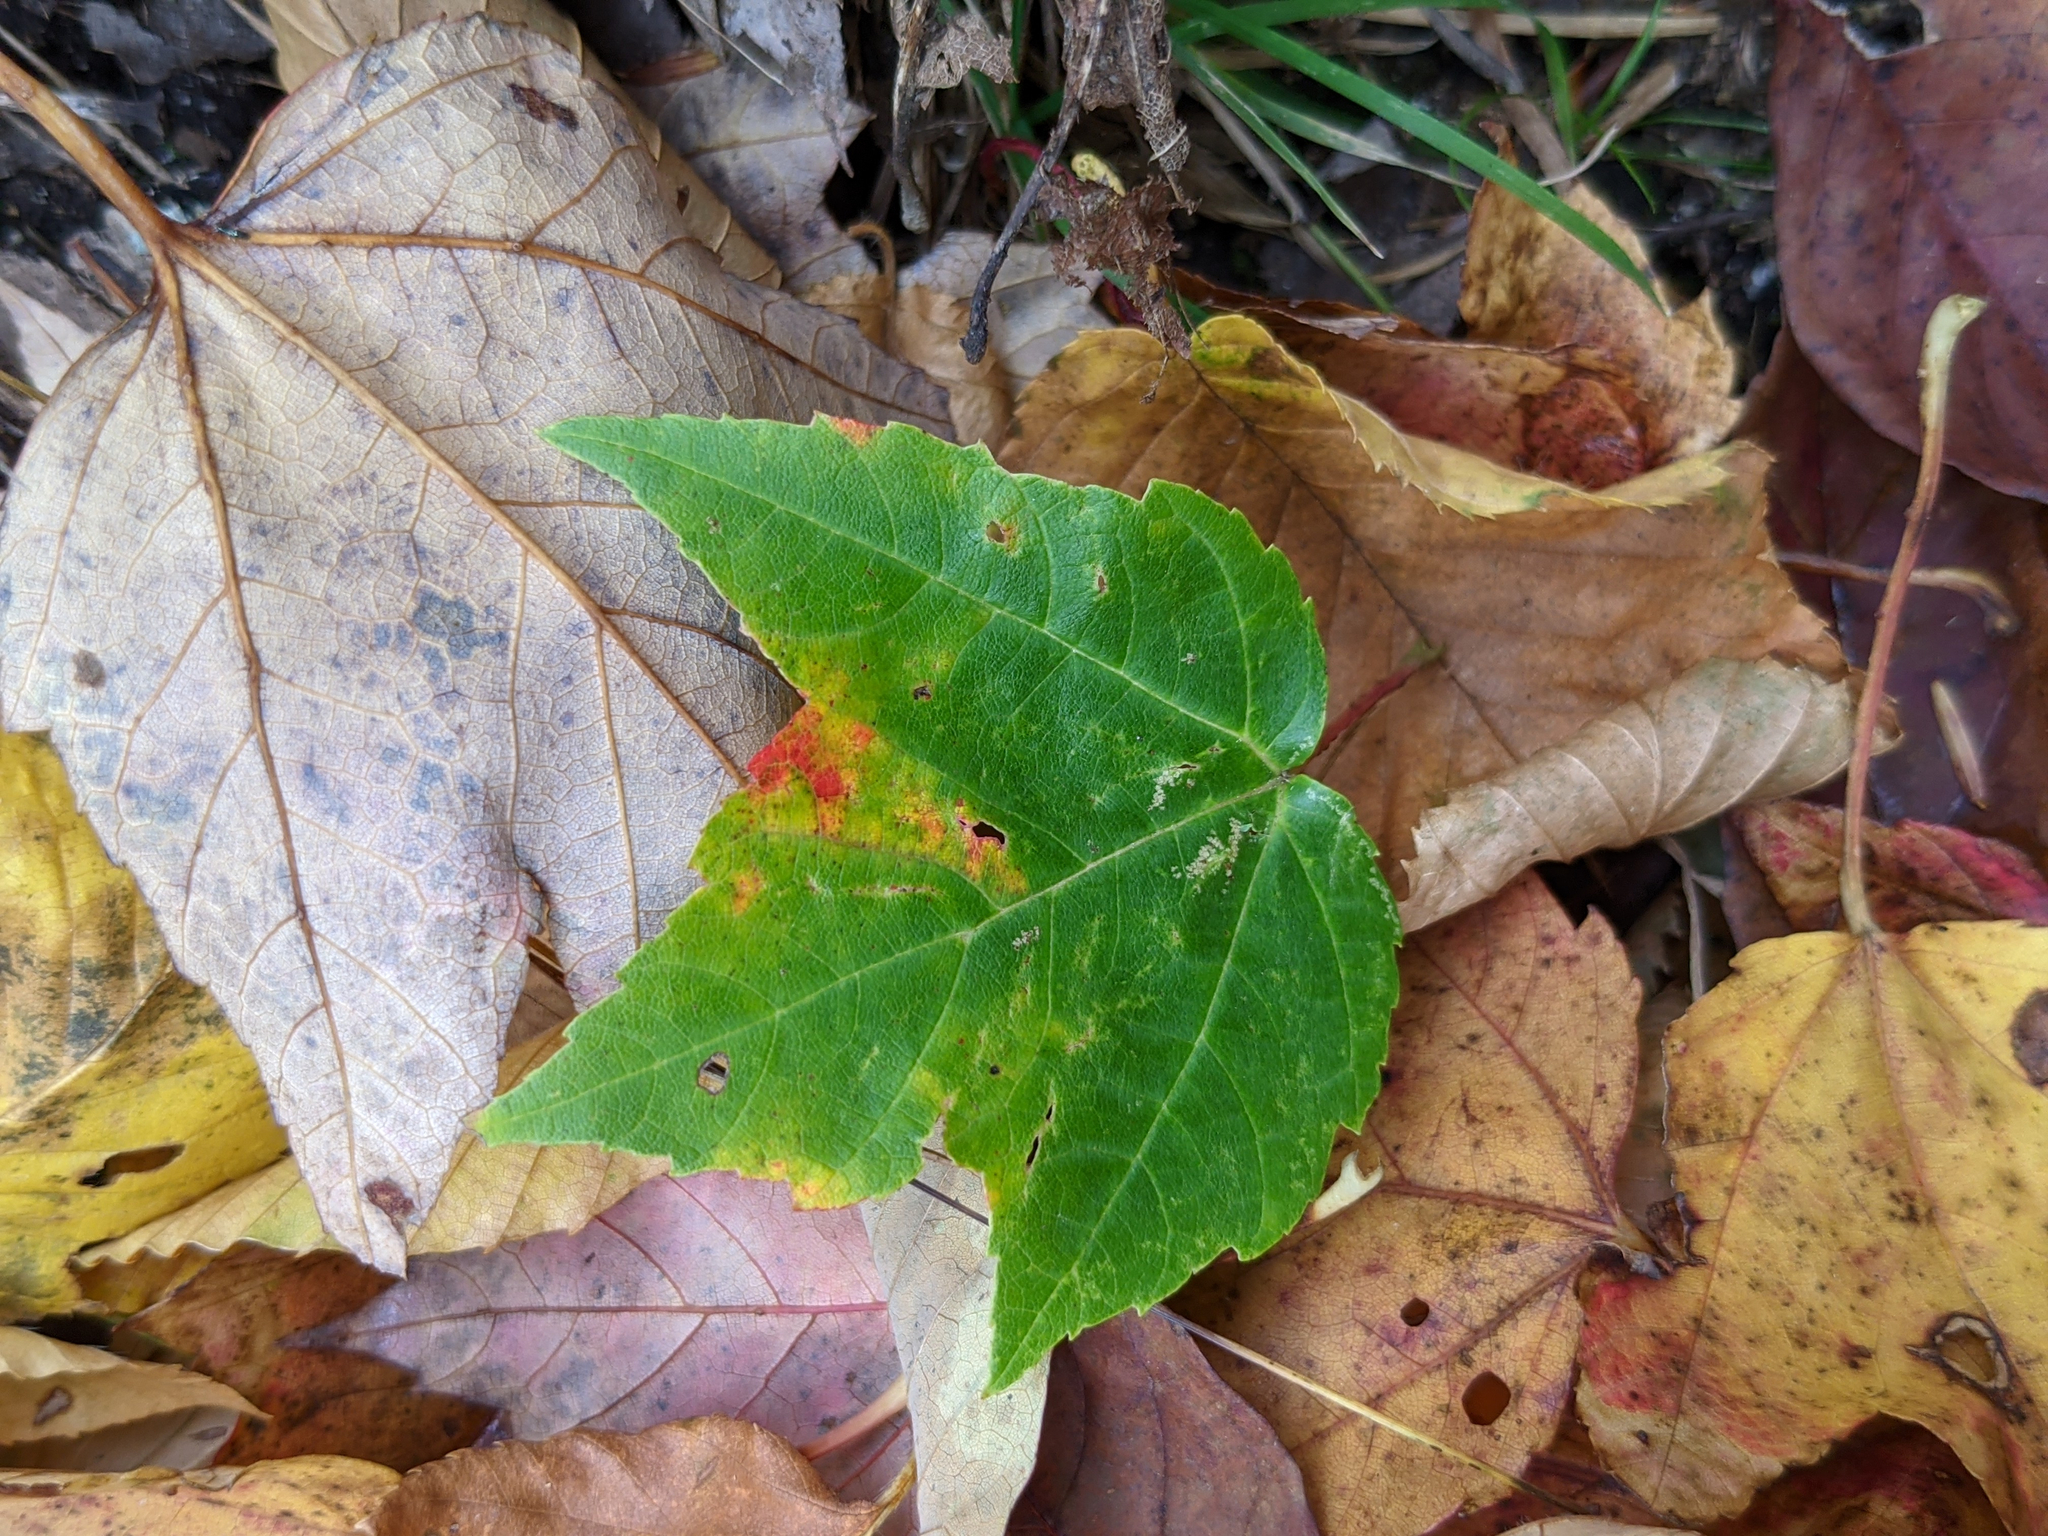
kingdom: Plantae
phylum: Tracheophyta
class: Magnoliopsida
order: Sapindales
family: Sapindaceae
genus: Acer
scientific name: Acer rubrum
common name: Red maple
